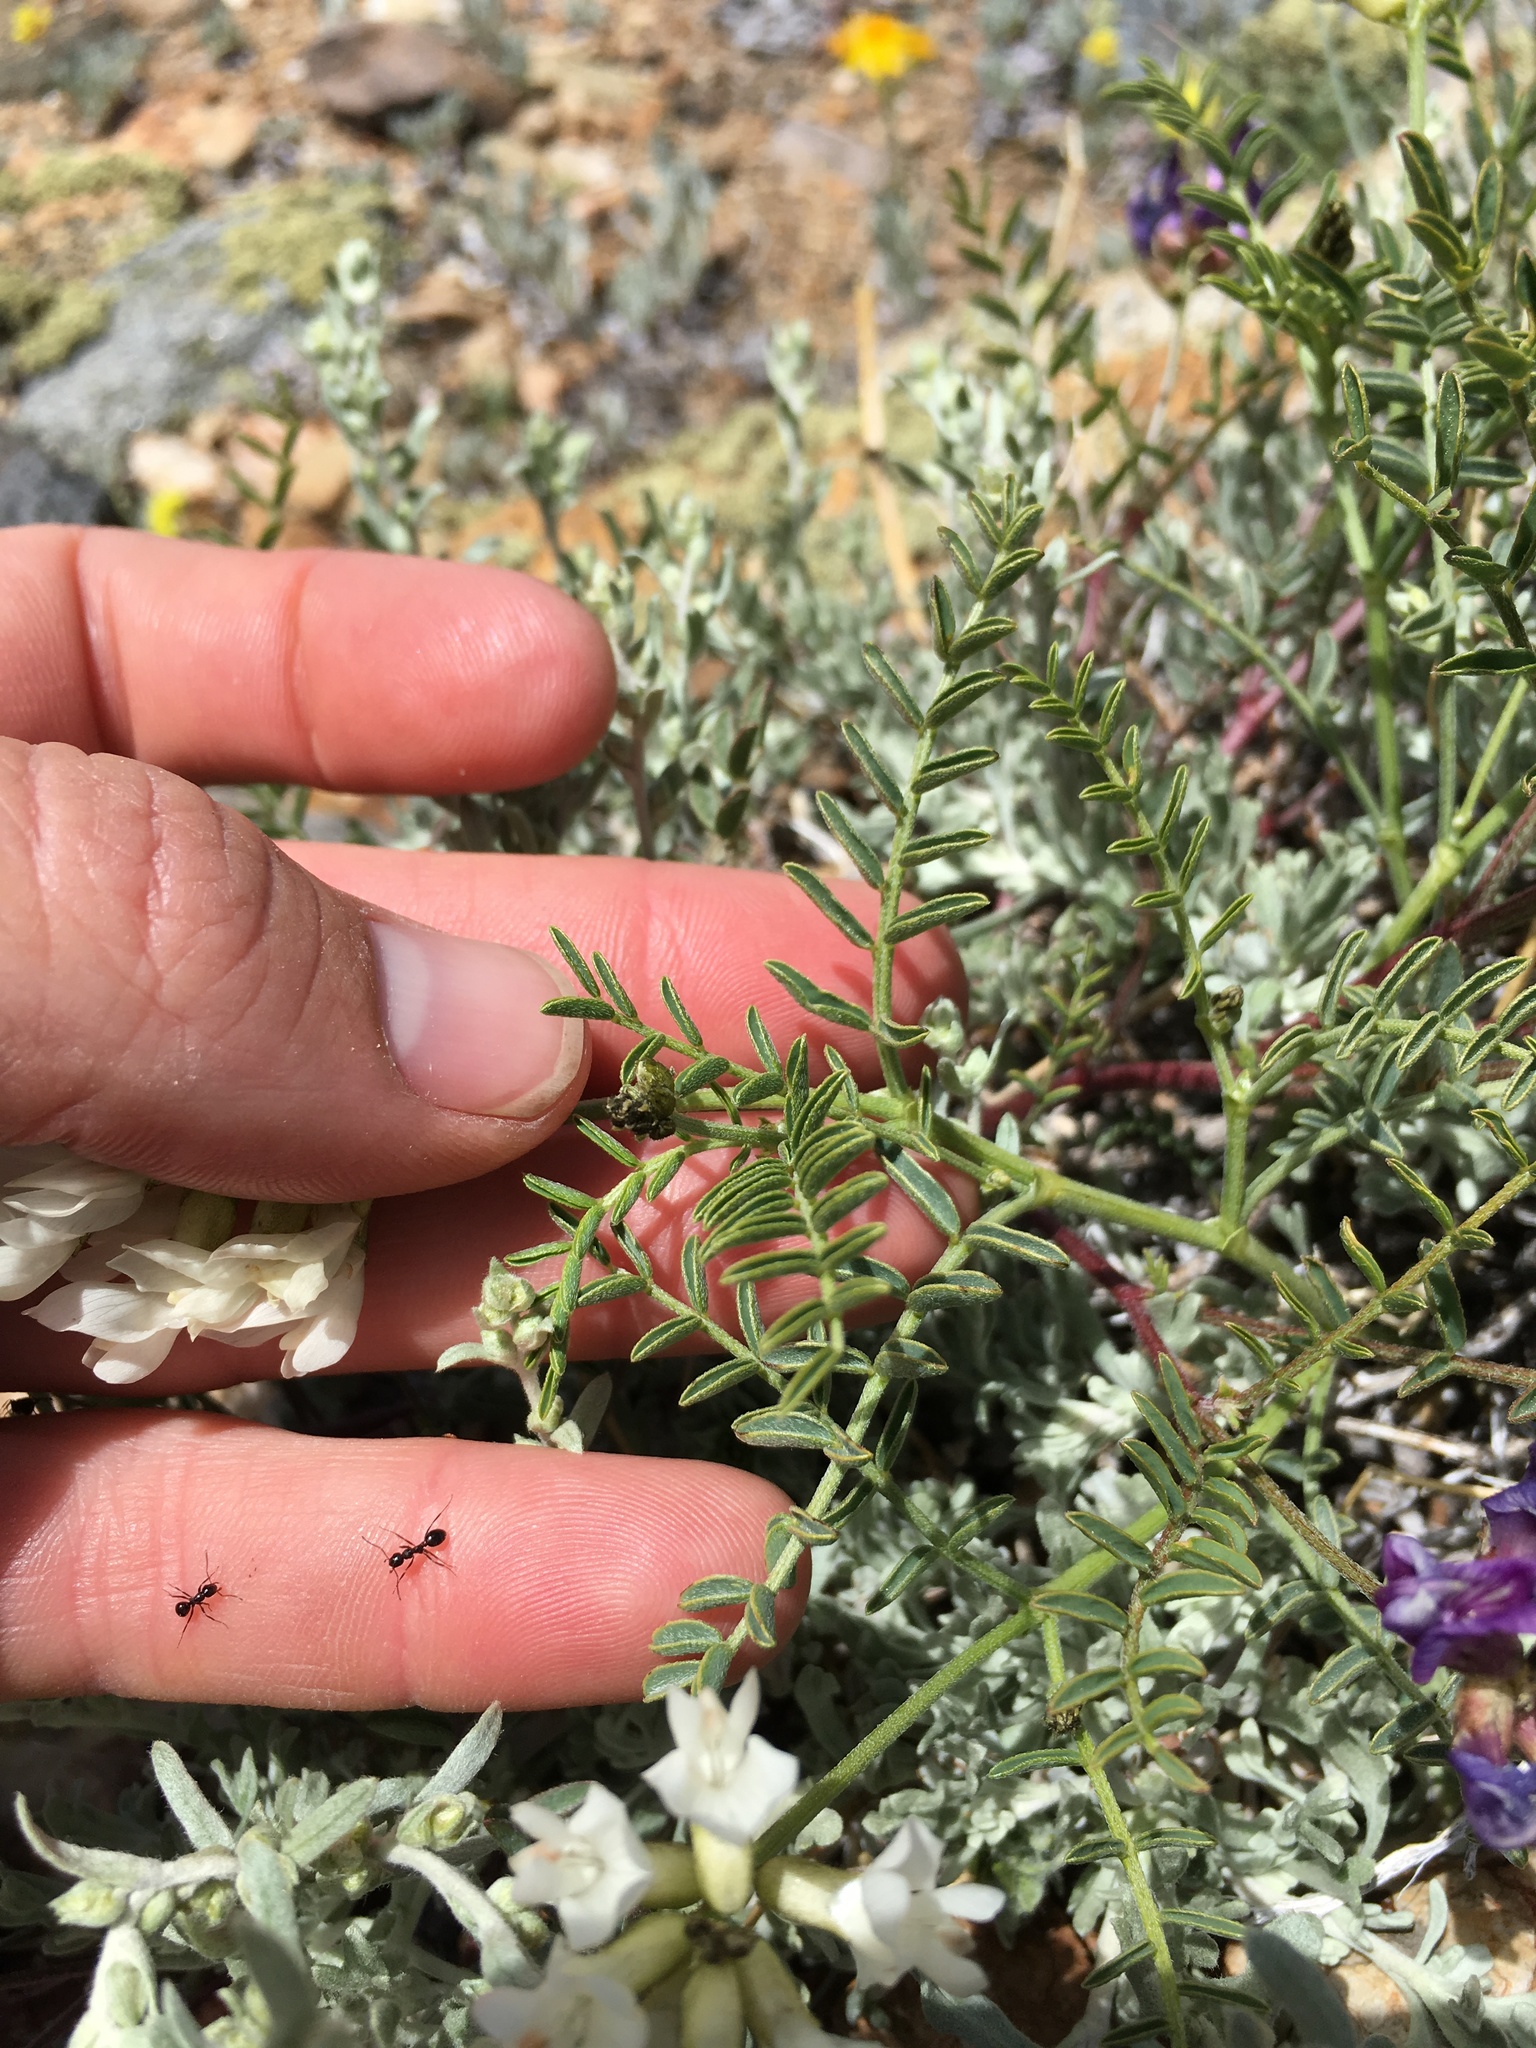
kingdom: Plantae
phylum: Tracheophyta
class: Magnoliopsida
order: Fabales
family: Fabaceae
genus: Astragalus
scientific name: Astragalus whitneyi
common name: Balloonpod milkvetch
